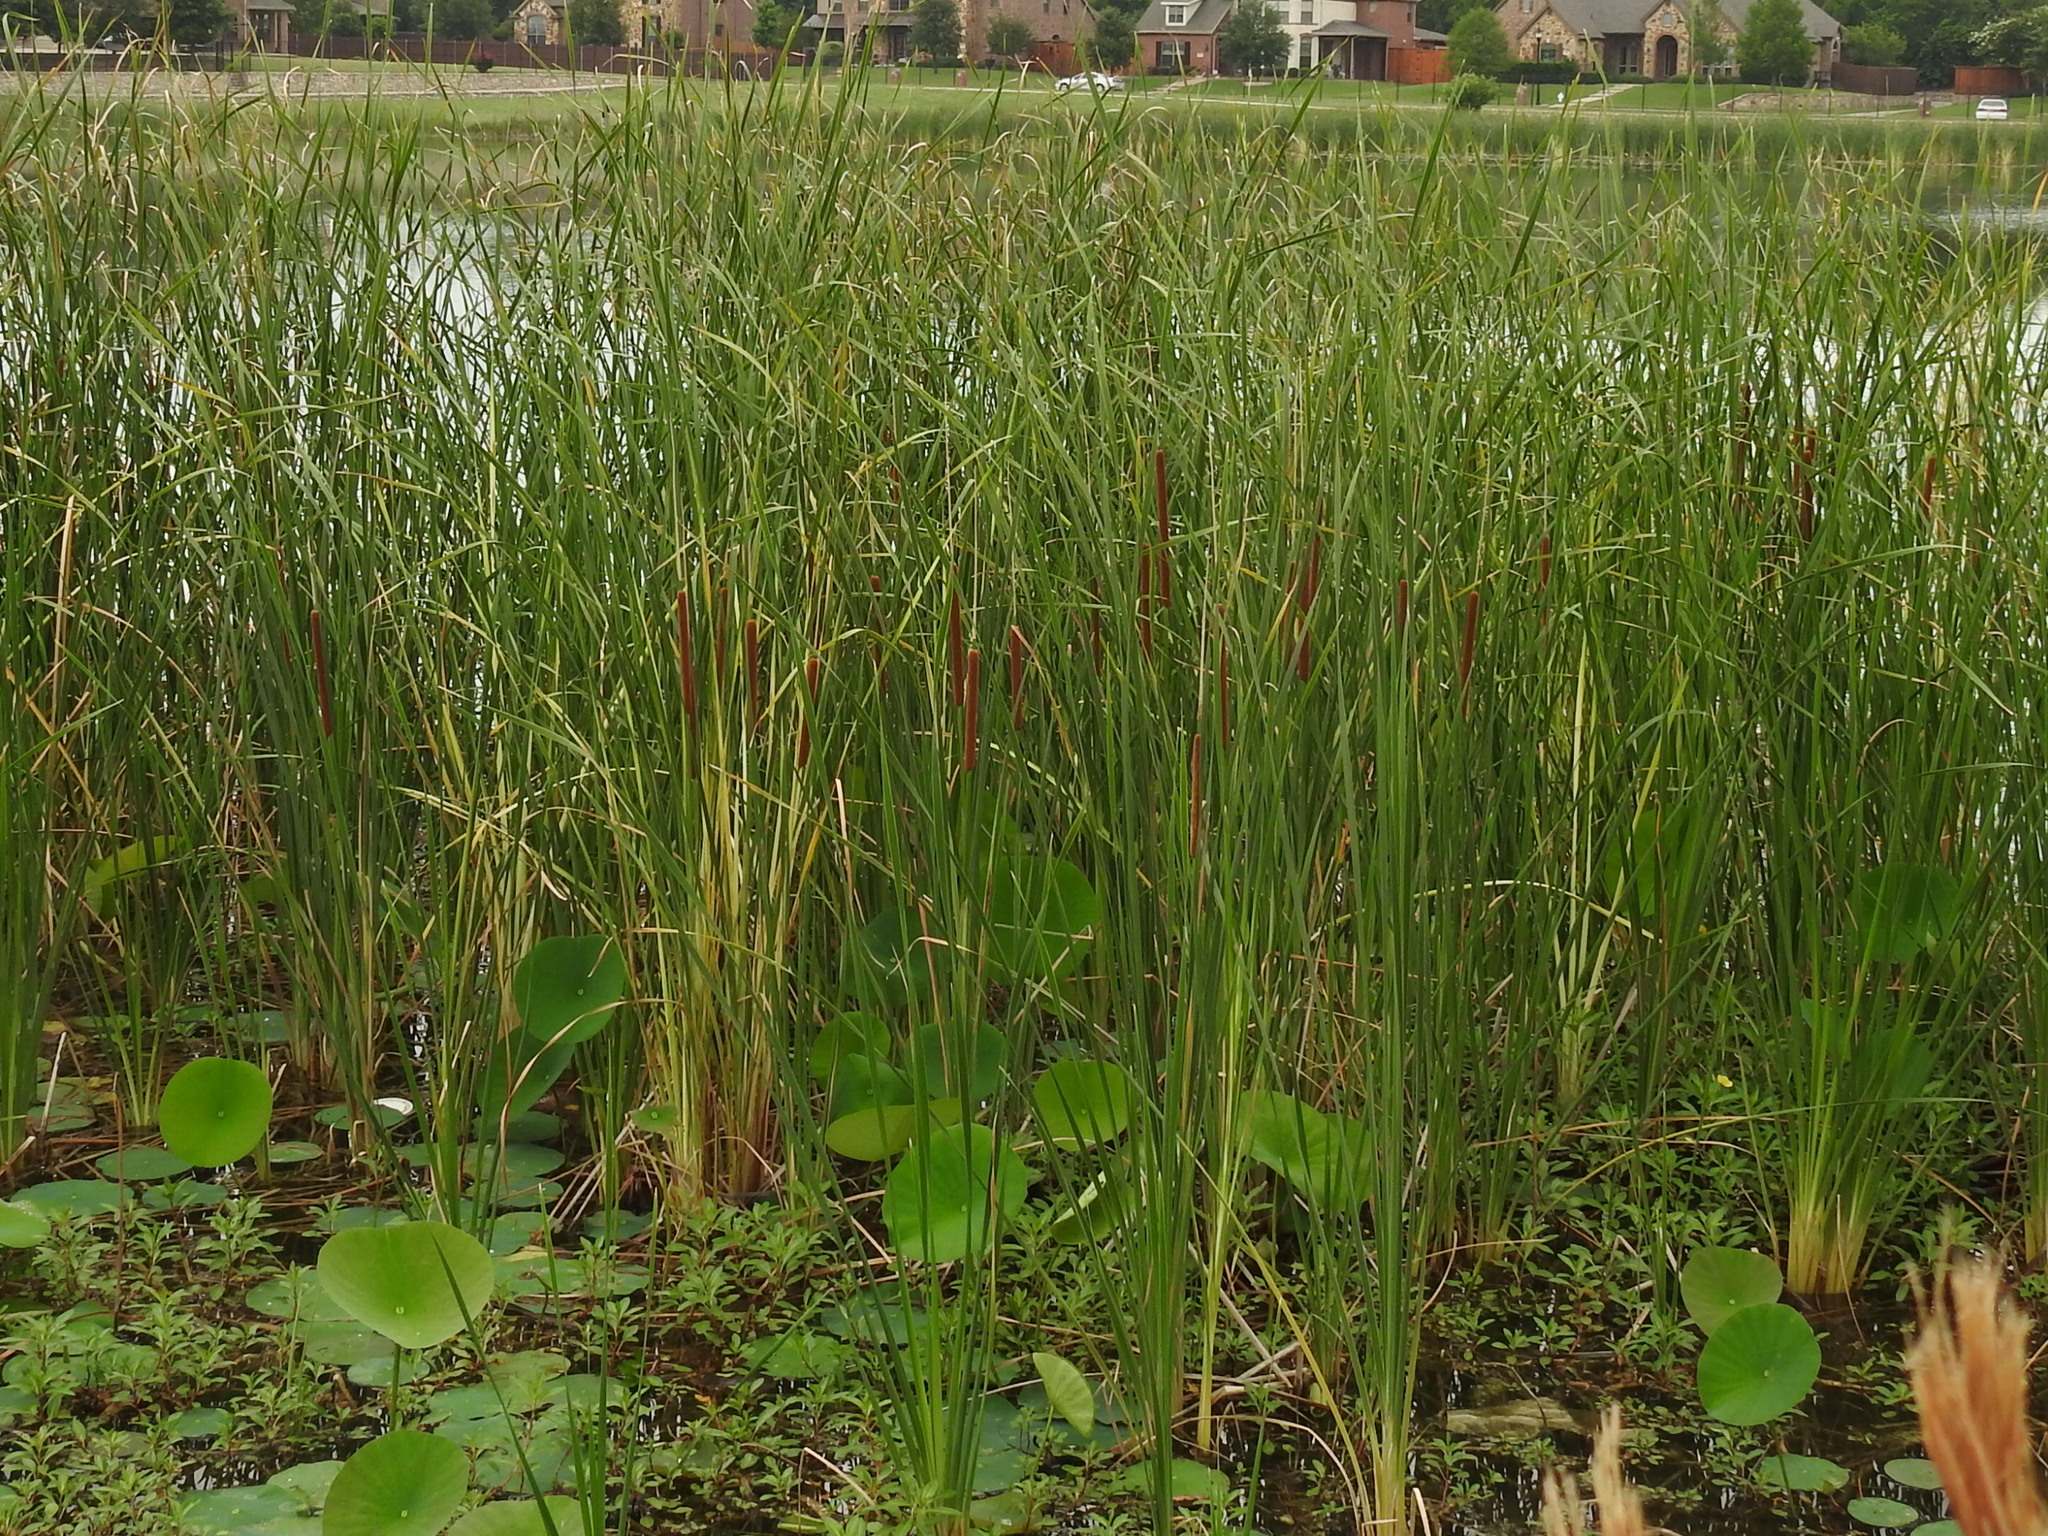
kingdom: Plantae
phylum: Tracheophyta
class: Liliopsida
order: Poales
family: Typhaceae
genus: Typha
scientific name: Typha domingensis
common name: Southern cattail
